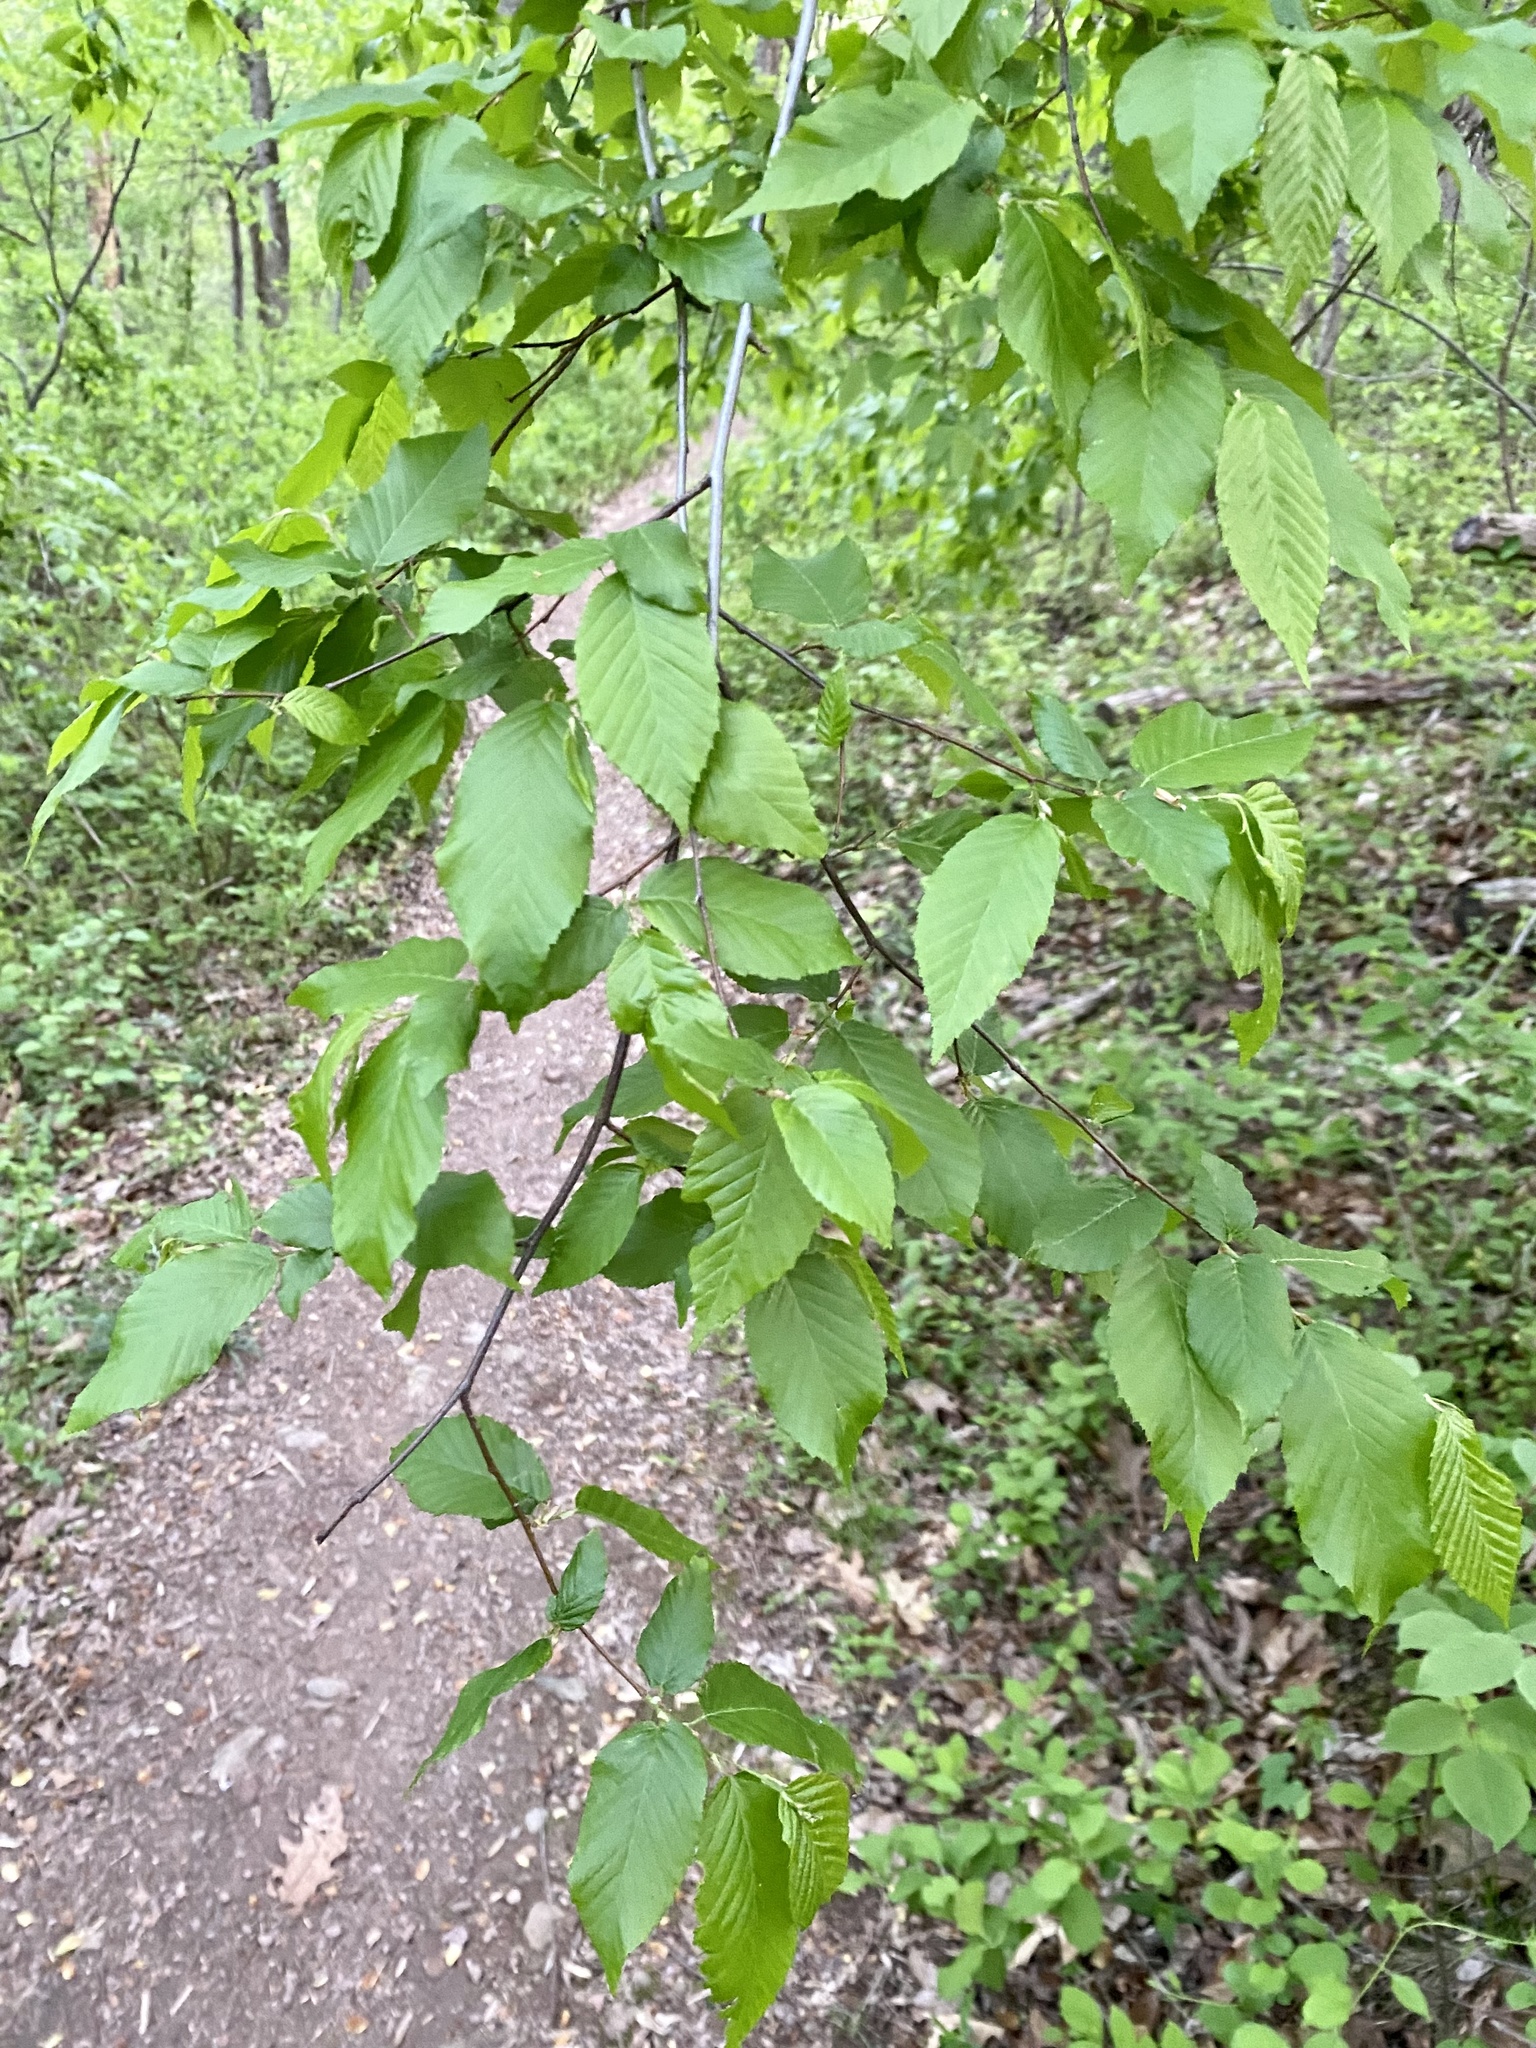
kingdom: Plantae
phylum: Tracheophyta
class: Magnoliopsida
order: Fagales
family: Betulaceae
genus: Carpinus
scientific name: Carpinus caroliniana
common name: American hornbeam
